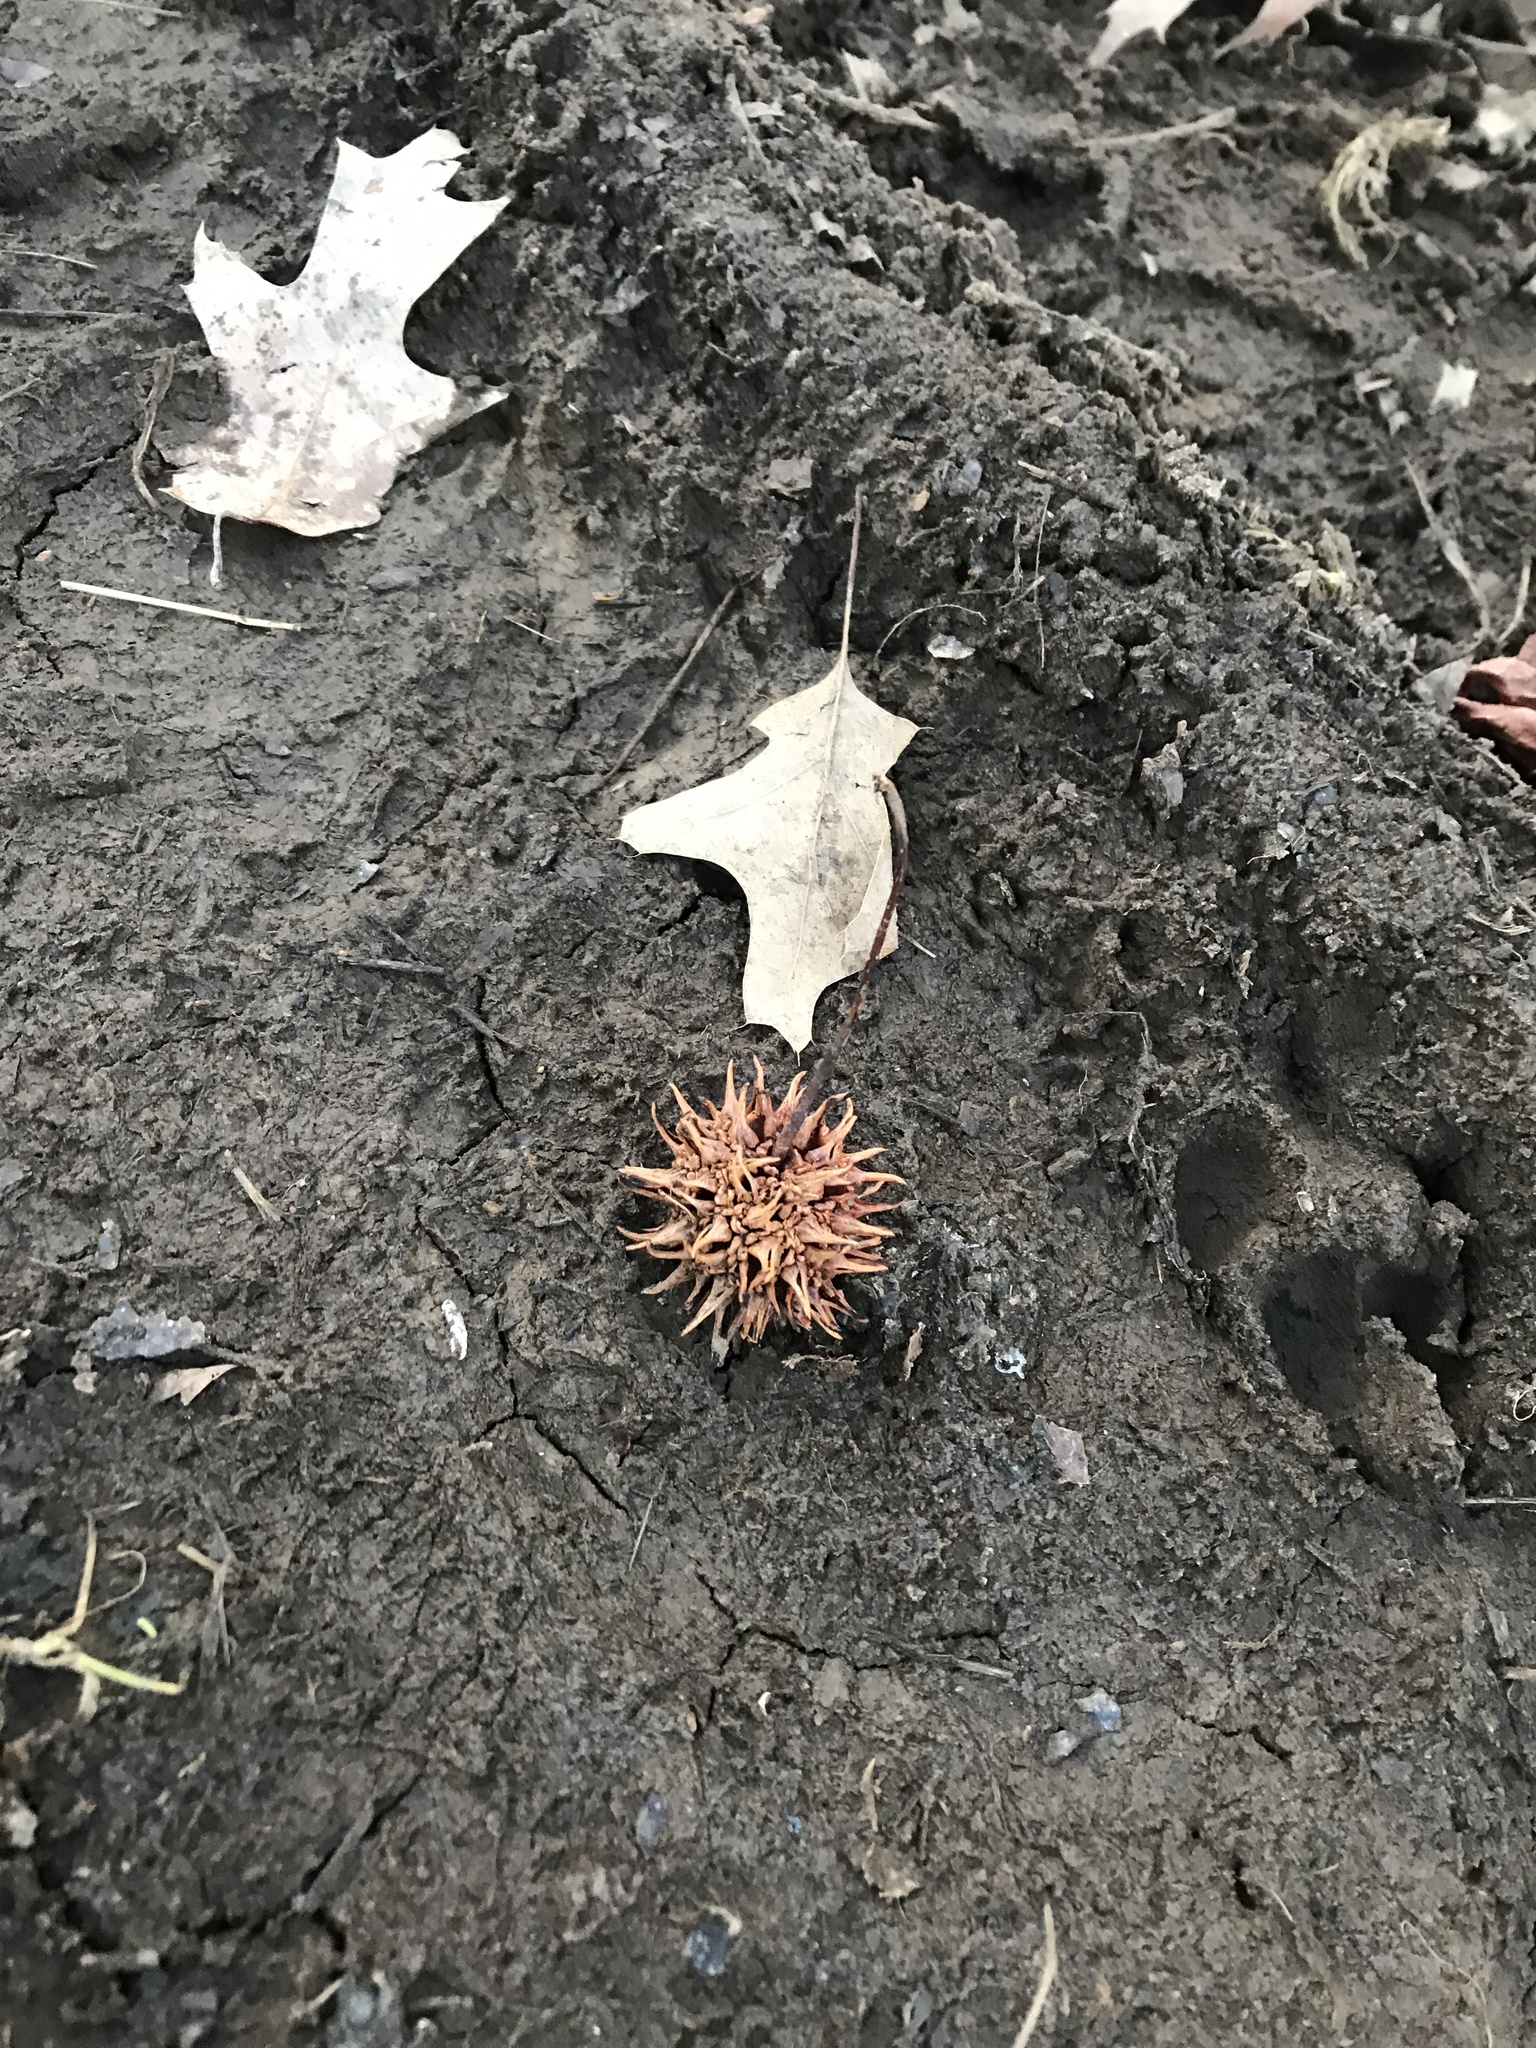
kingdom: Plantae
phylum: Tracheophyta
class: Magnoliopsida
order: Saxifragales
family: Altingiaceae
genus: Liquidambar
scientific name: Liquidambar styraciflua
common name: Sweet gum
